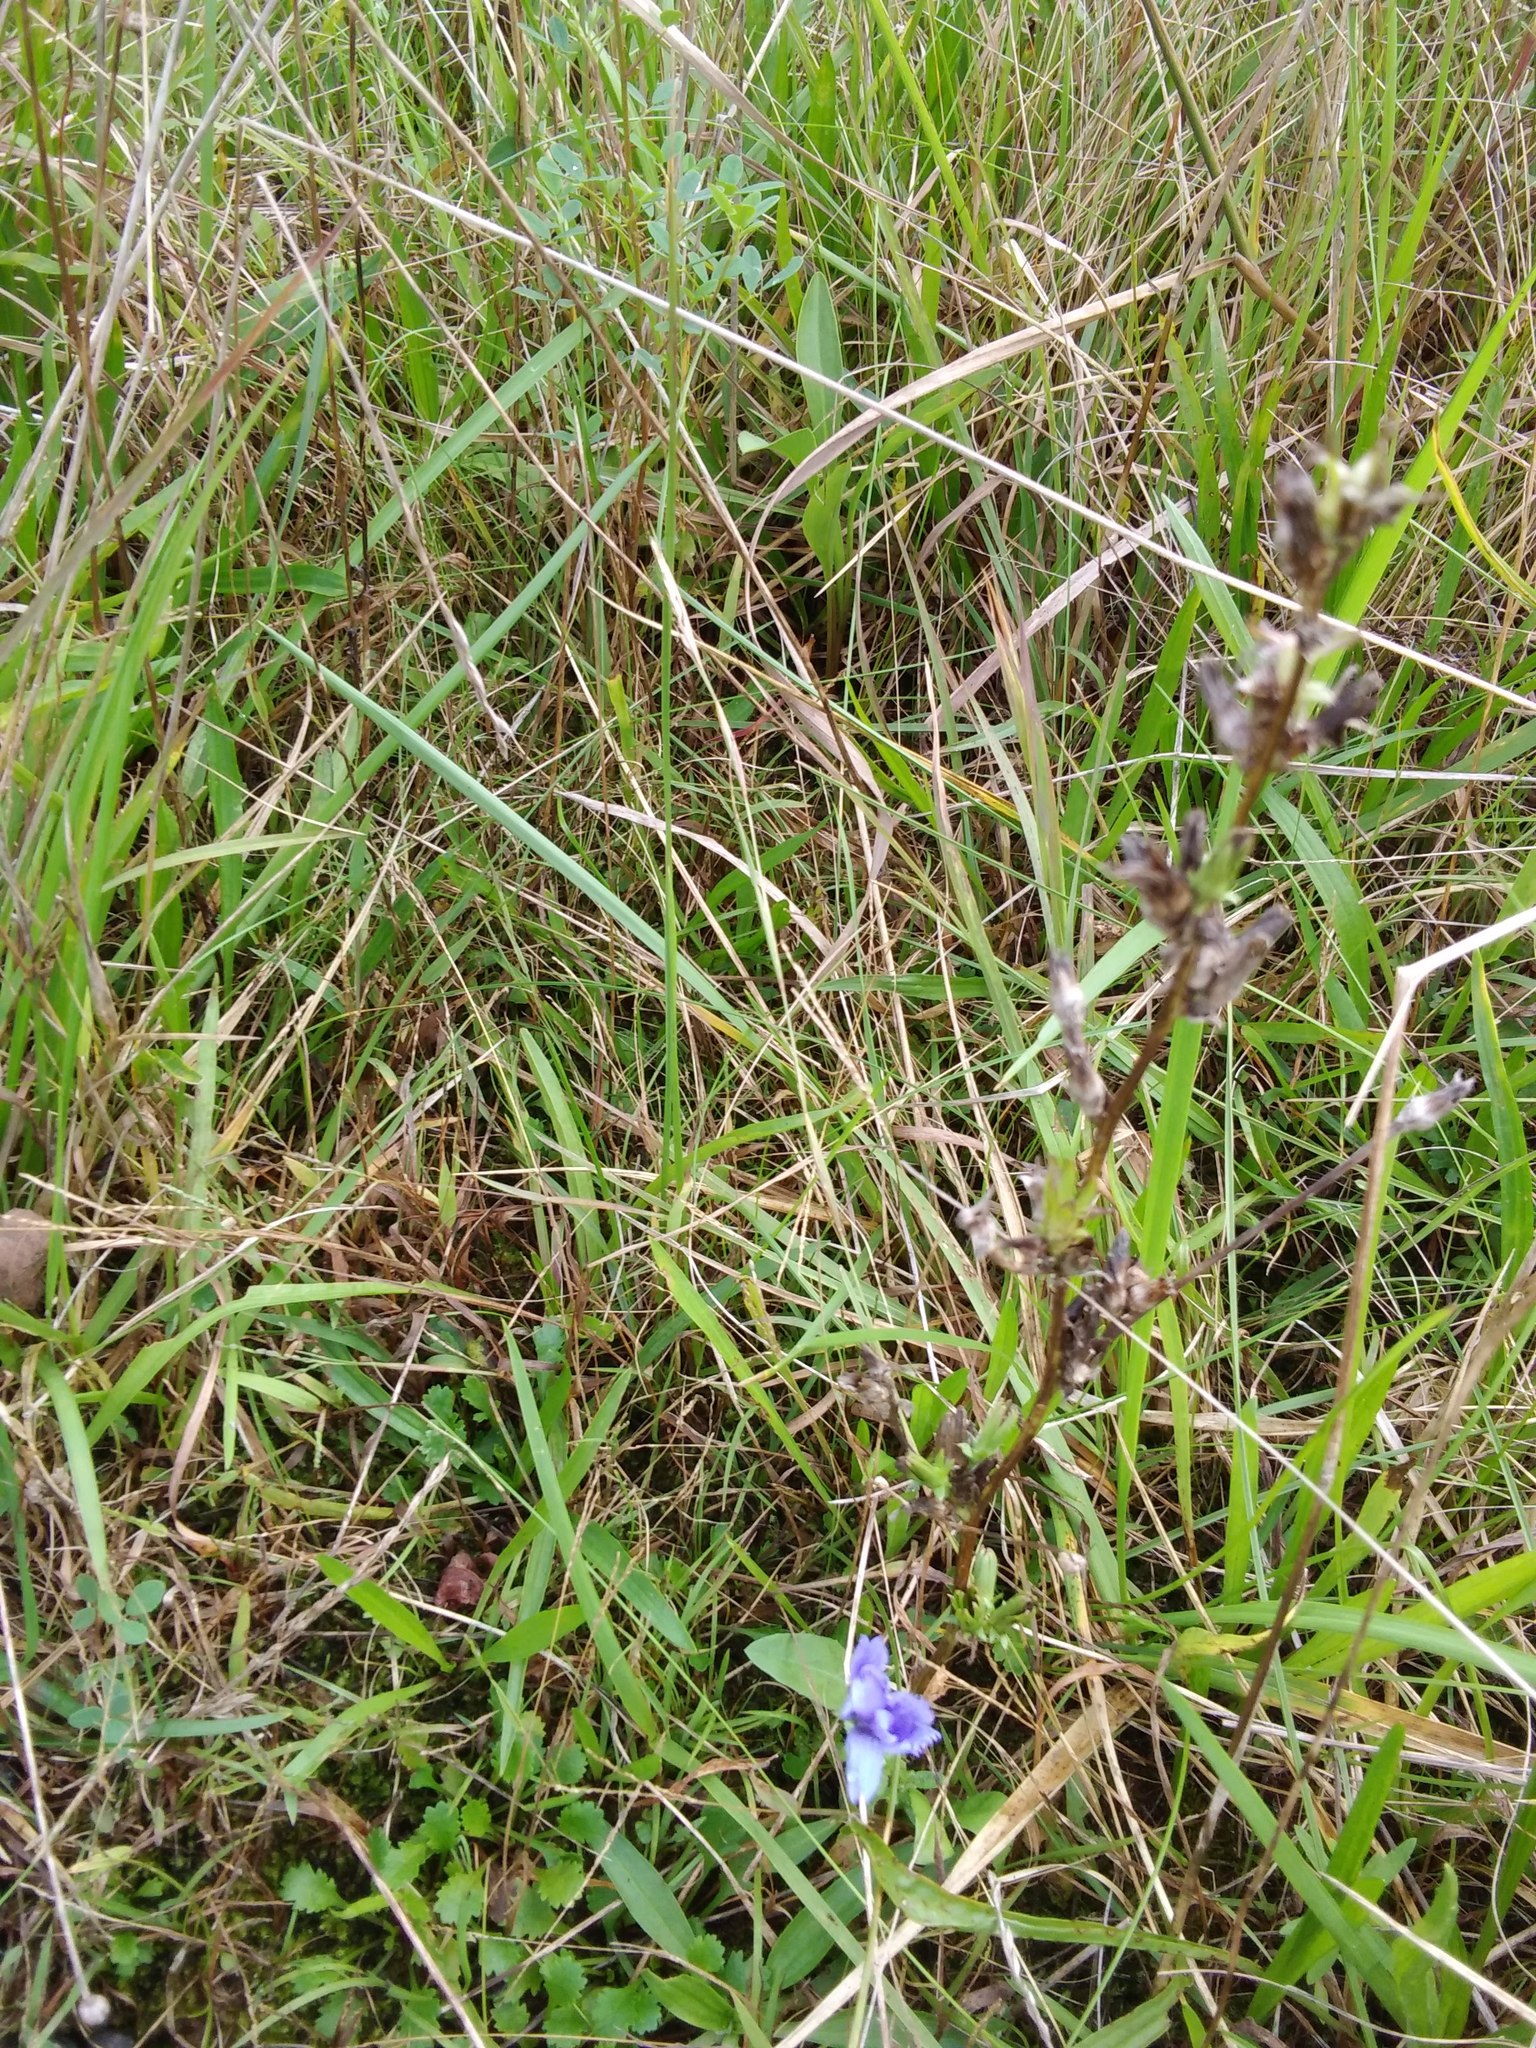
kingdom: Plantae
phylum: Tracheophyta
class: Magnoliopsida
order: Asterales
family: Asteraceae
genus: Cichorium
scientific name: Cichorium intybus
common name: Chicory
